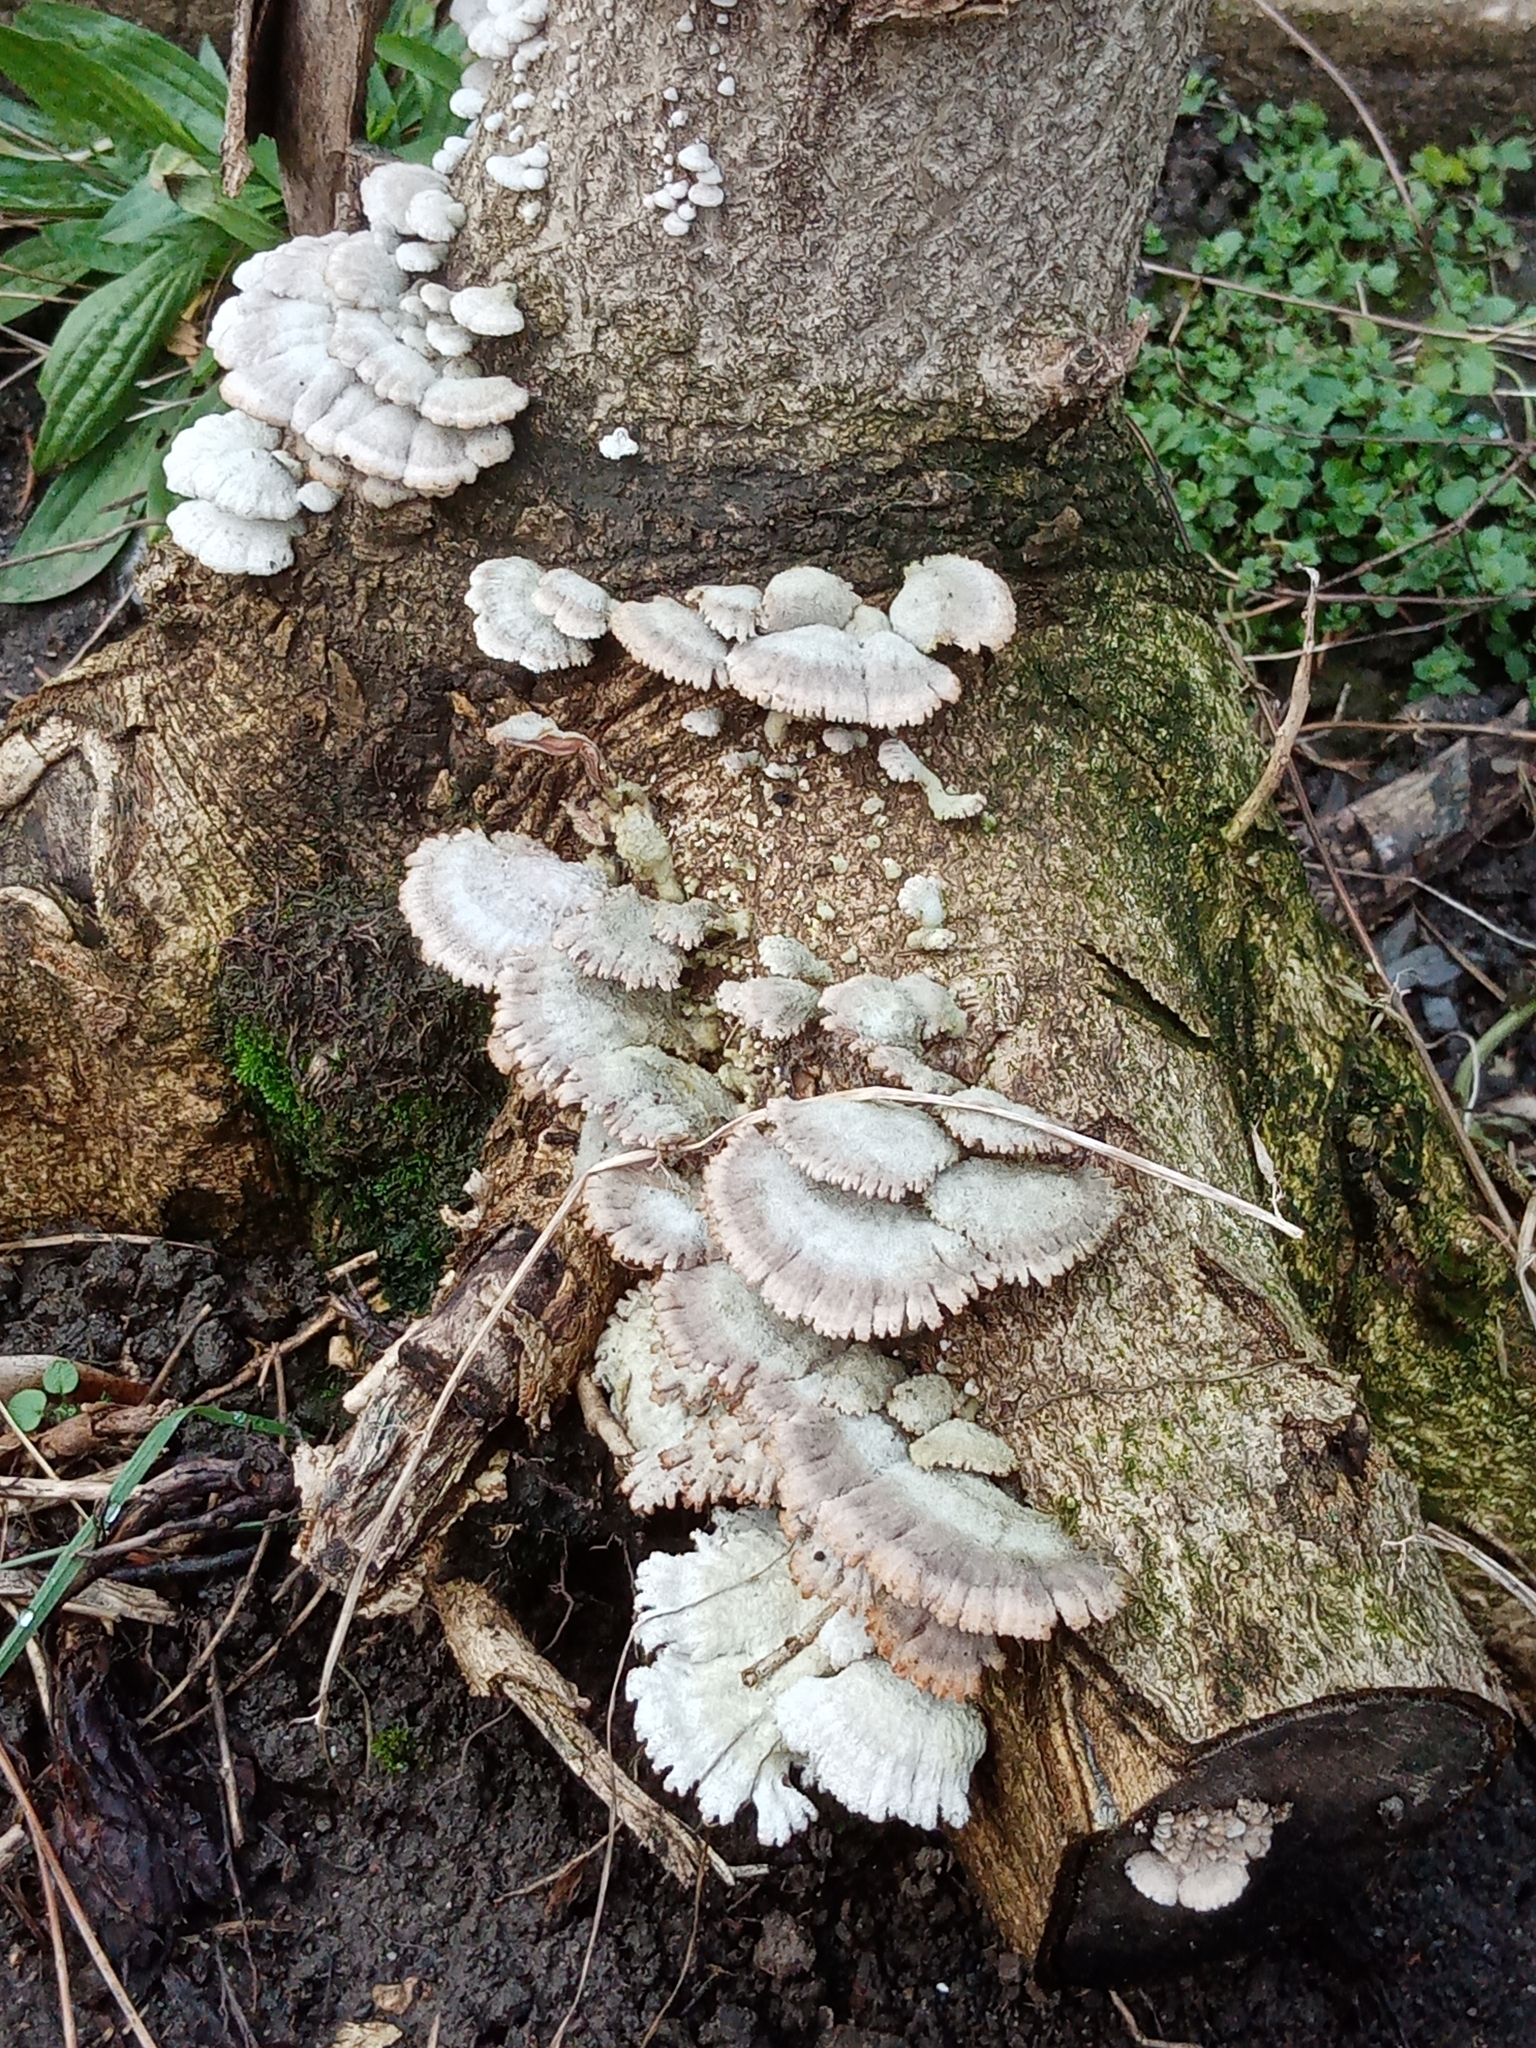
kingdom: Fungi
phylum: Basidiomycota
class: Agaricomycetes
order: Agaricales
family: Schizophyllaceae
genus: Schizophyllum
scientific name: Schizophyllum commune
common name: Common porecrust
